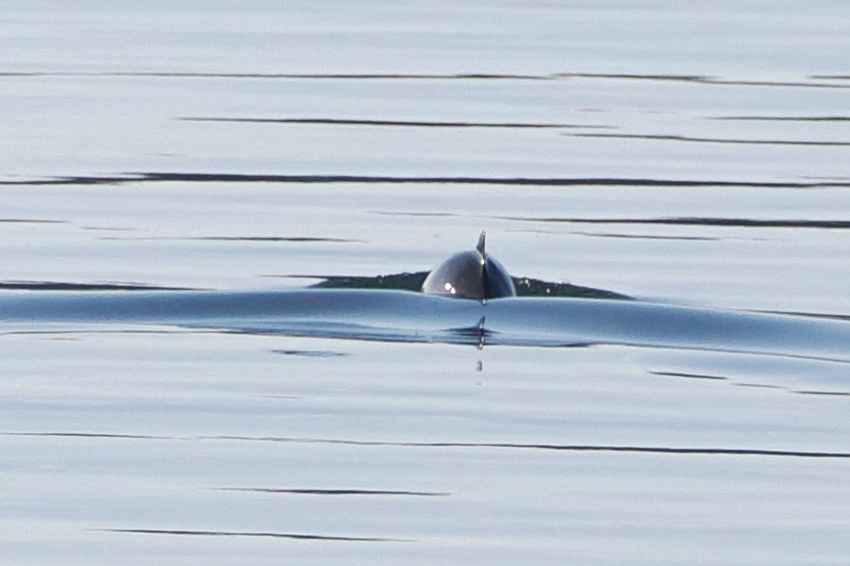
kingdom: Animalia
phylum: Chordata
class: Mammalia
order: Cetacea
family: Phocoenidae
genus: Phocoena
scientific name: Phocoena phocoena
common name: Harbor porpoise
